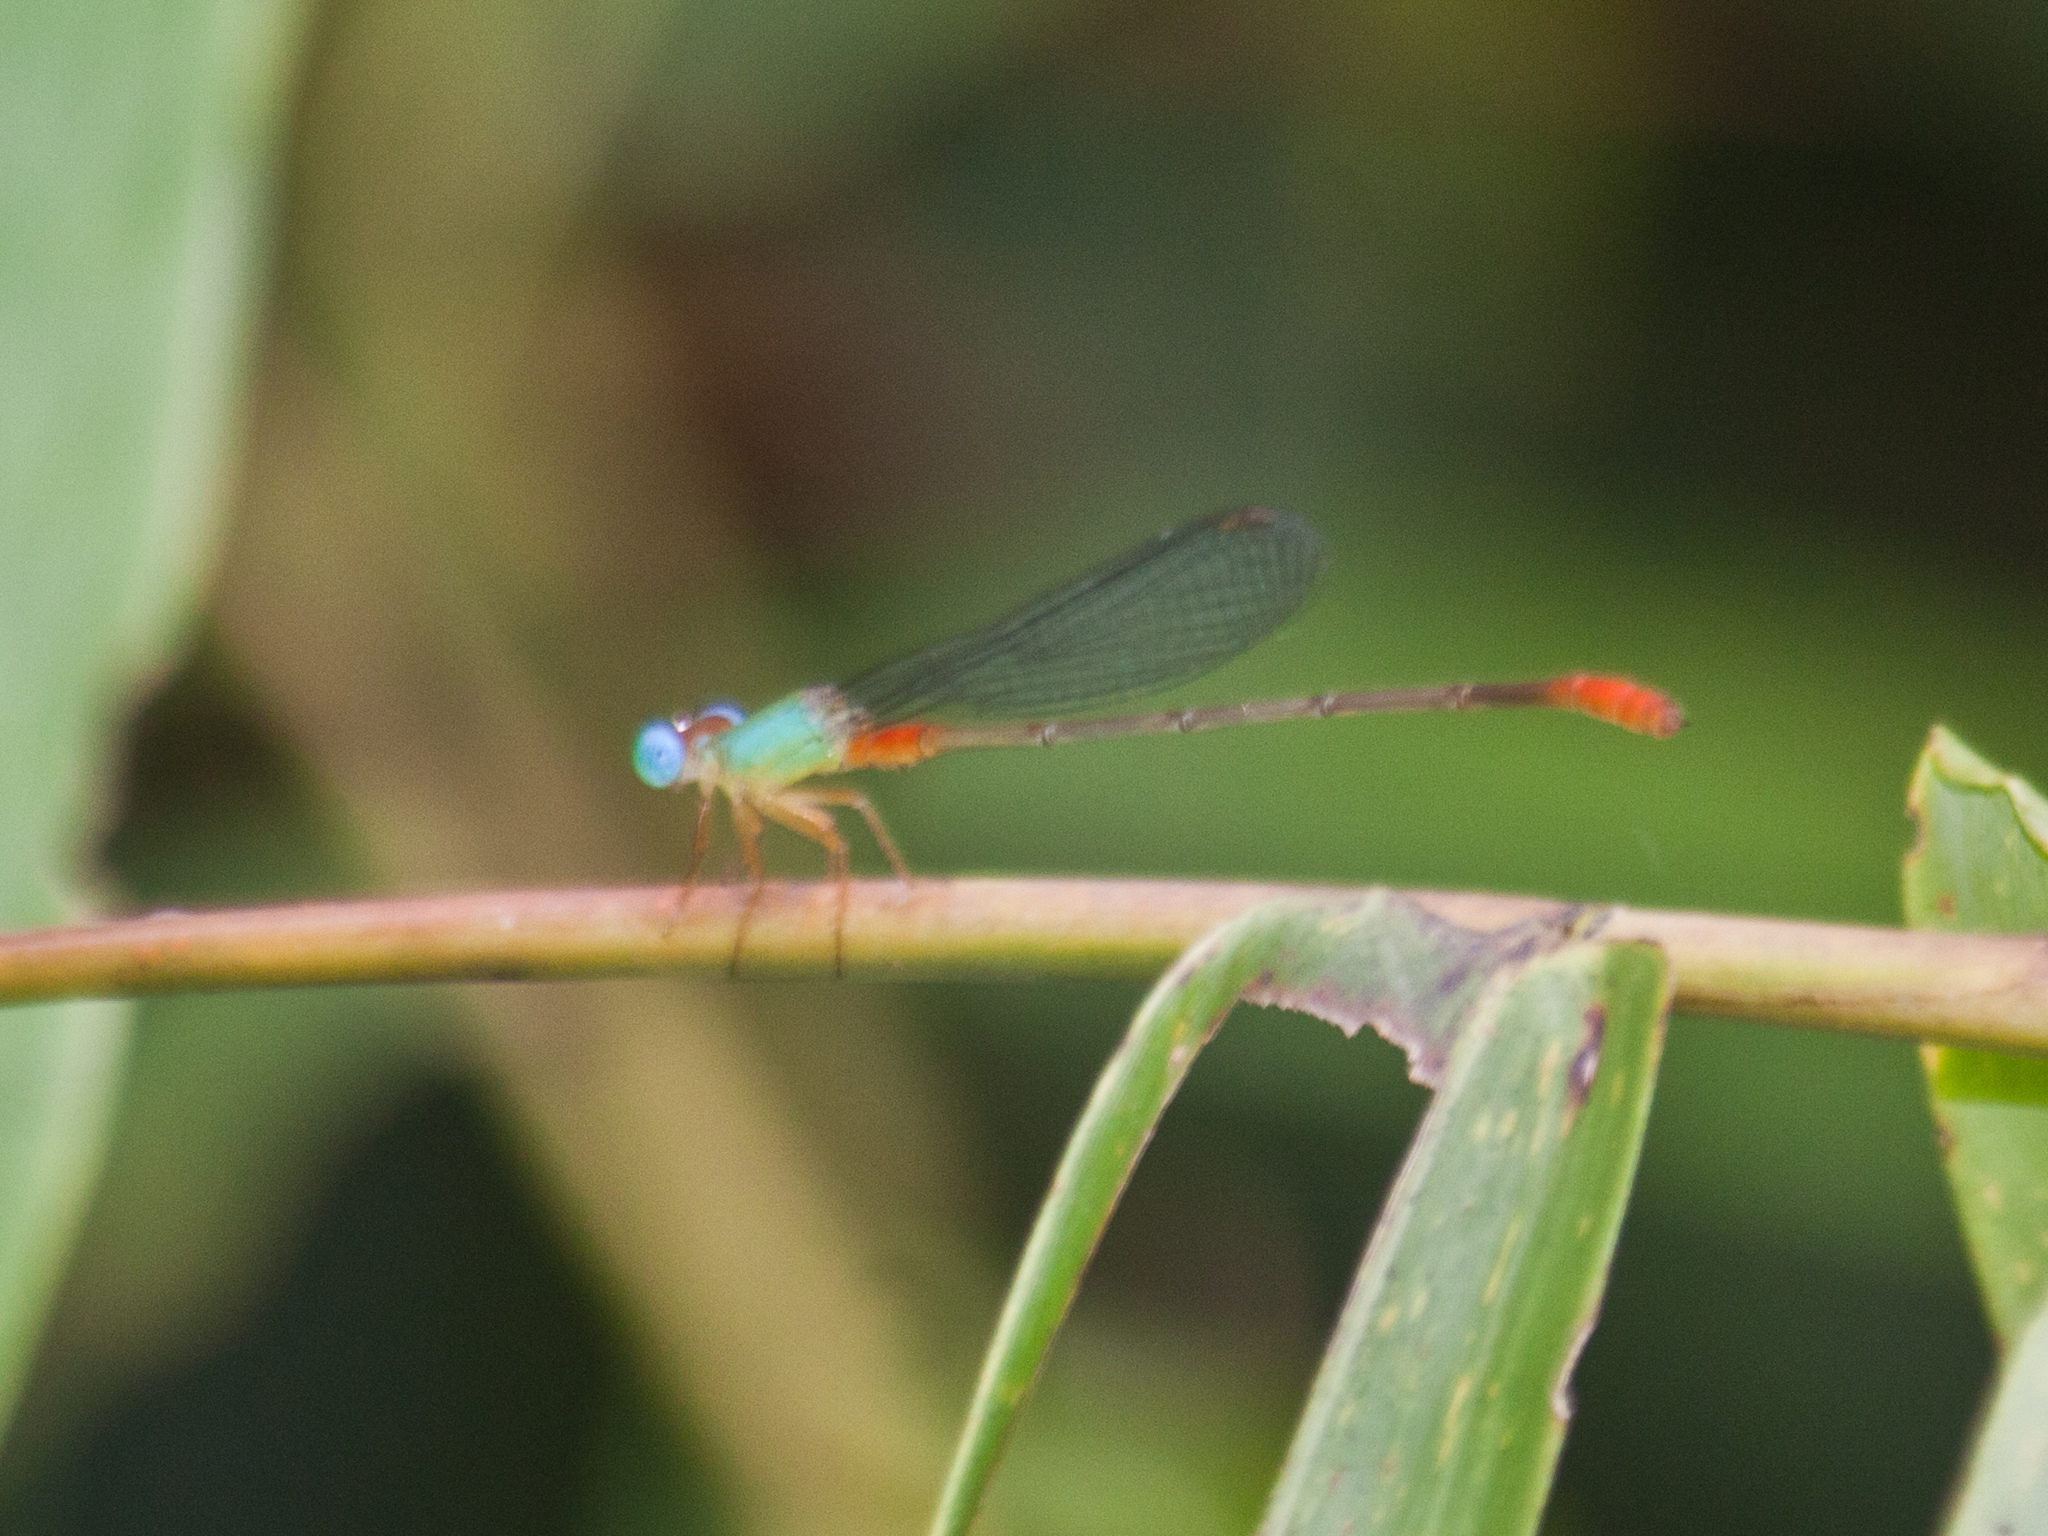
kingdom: Animalia
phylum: Arthropoda
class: Insecta
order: Odonata
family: Coenagrionidae
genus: Ceriagrion
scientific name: Ceriagrion cerinorubellum
